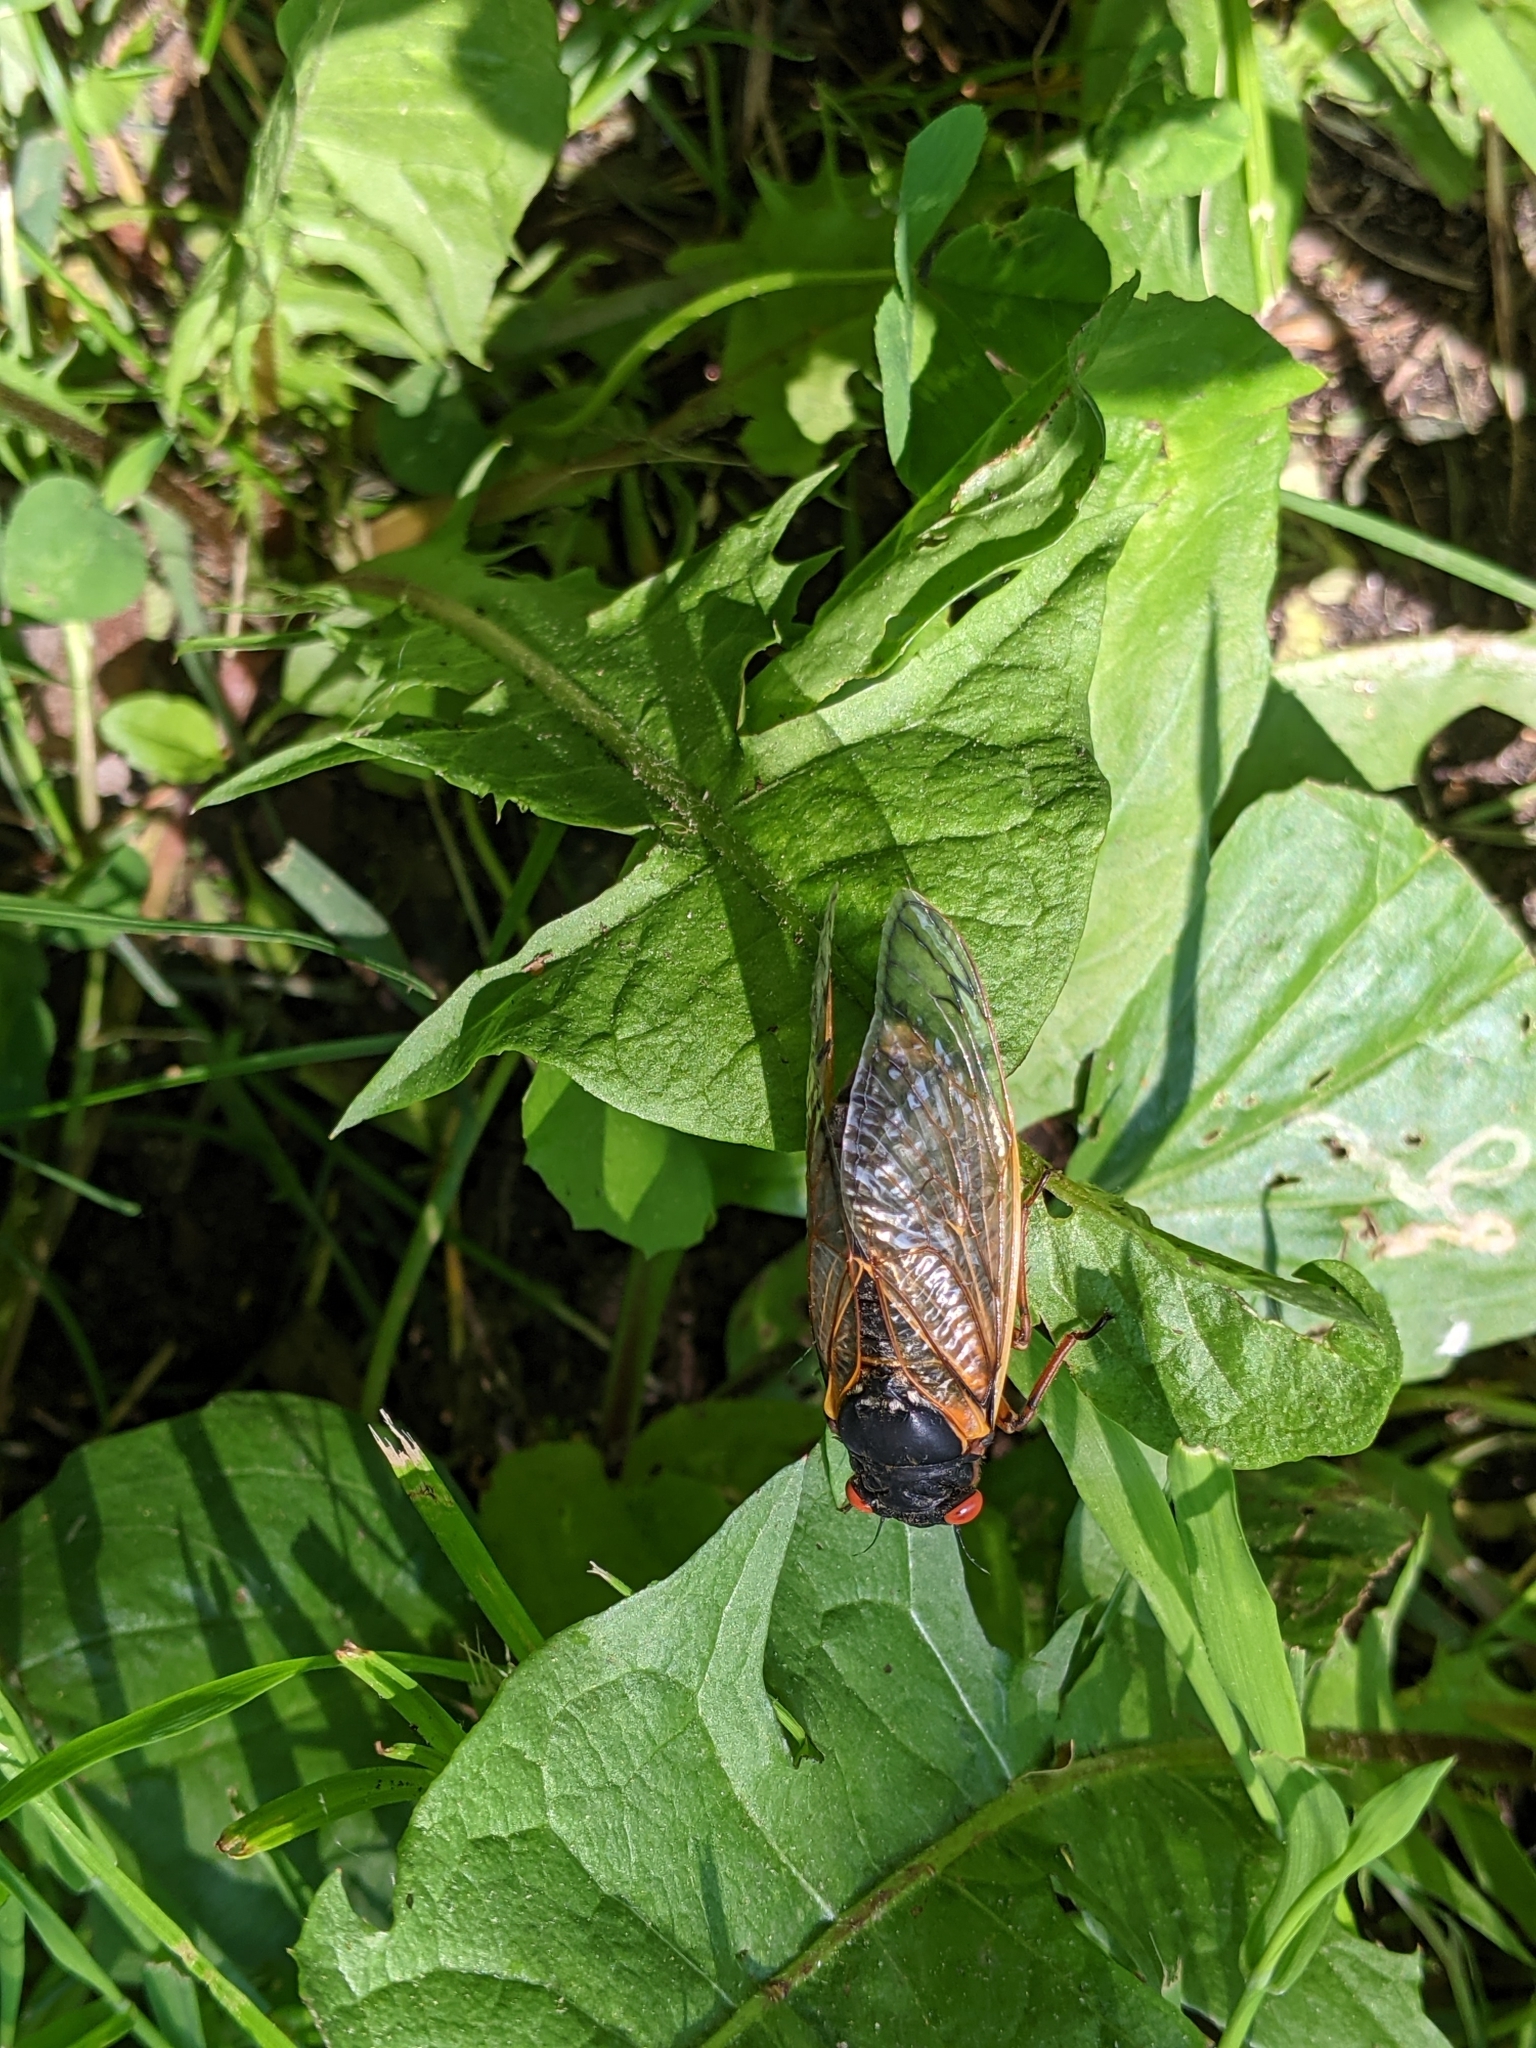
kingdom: Animalia
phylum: Arthropoda
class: Insecta
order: Hemiptera
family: Cicadidae
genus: Magicicada
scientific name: Magicicada septendecim
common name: Periodical cicada
